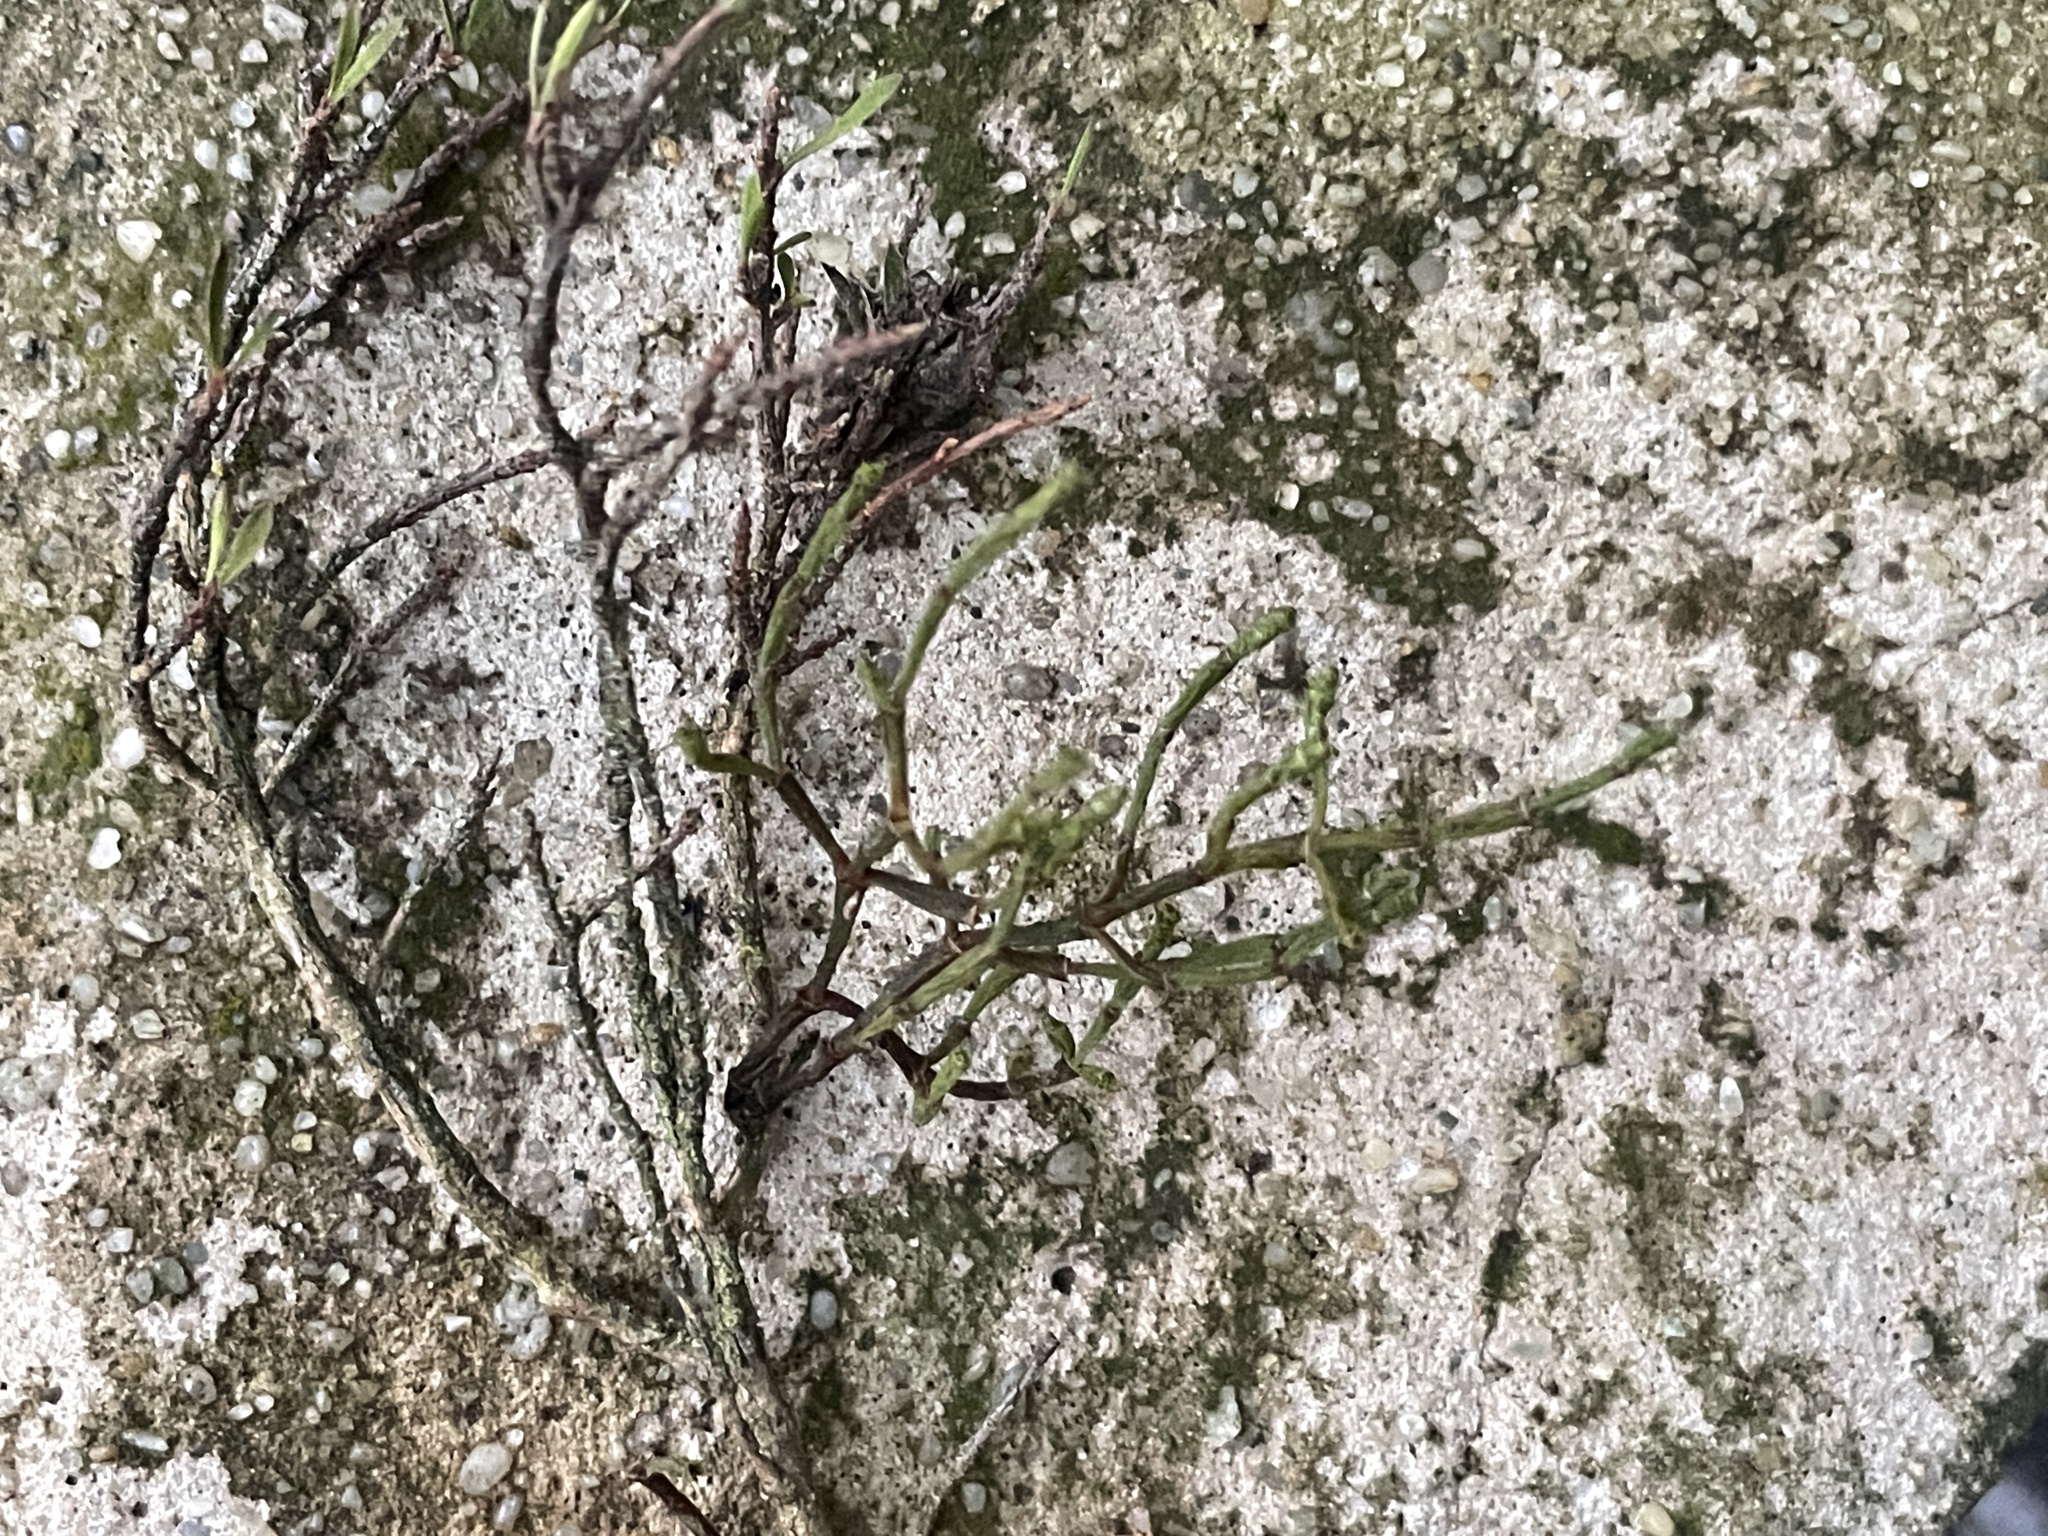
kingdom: Plantae
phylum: Tracheophyta
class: Magnoliopsida
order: Santalales
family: Viscaceae
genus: Korthalsella
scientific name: Korthalsella salicornioides
